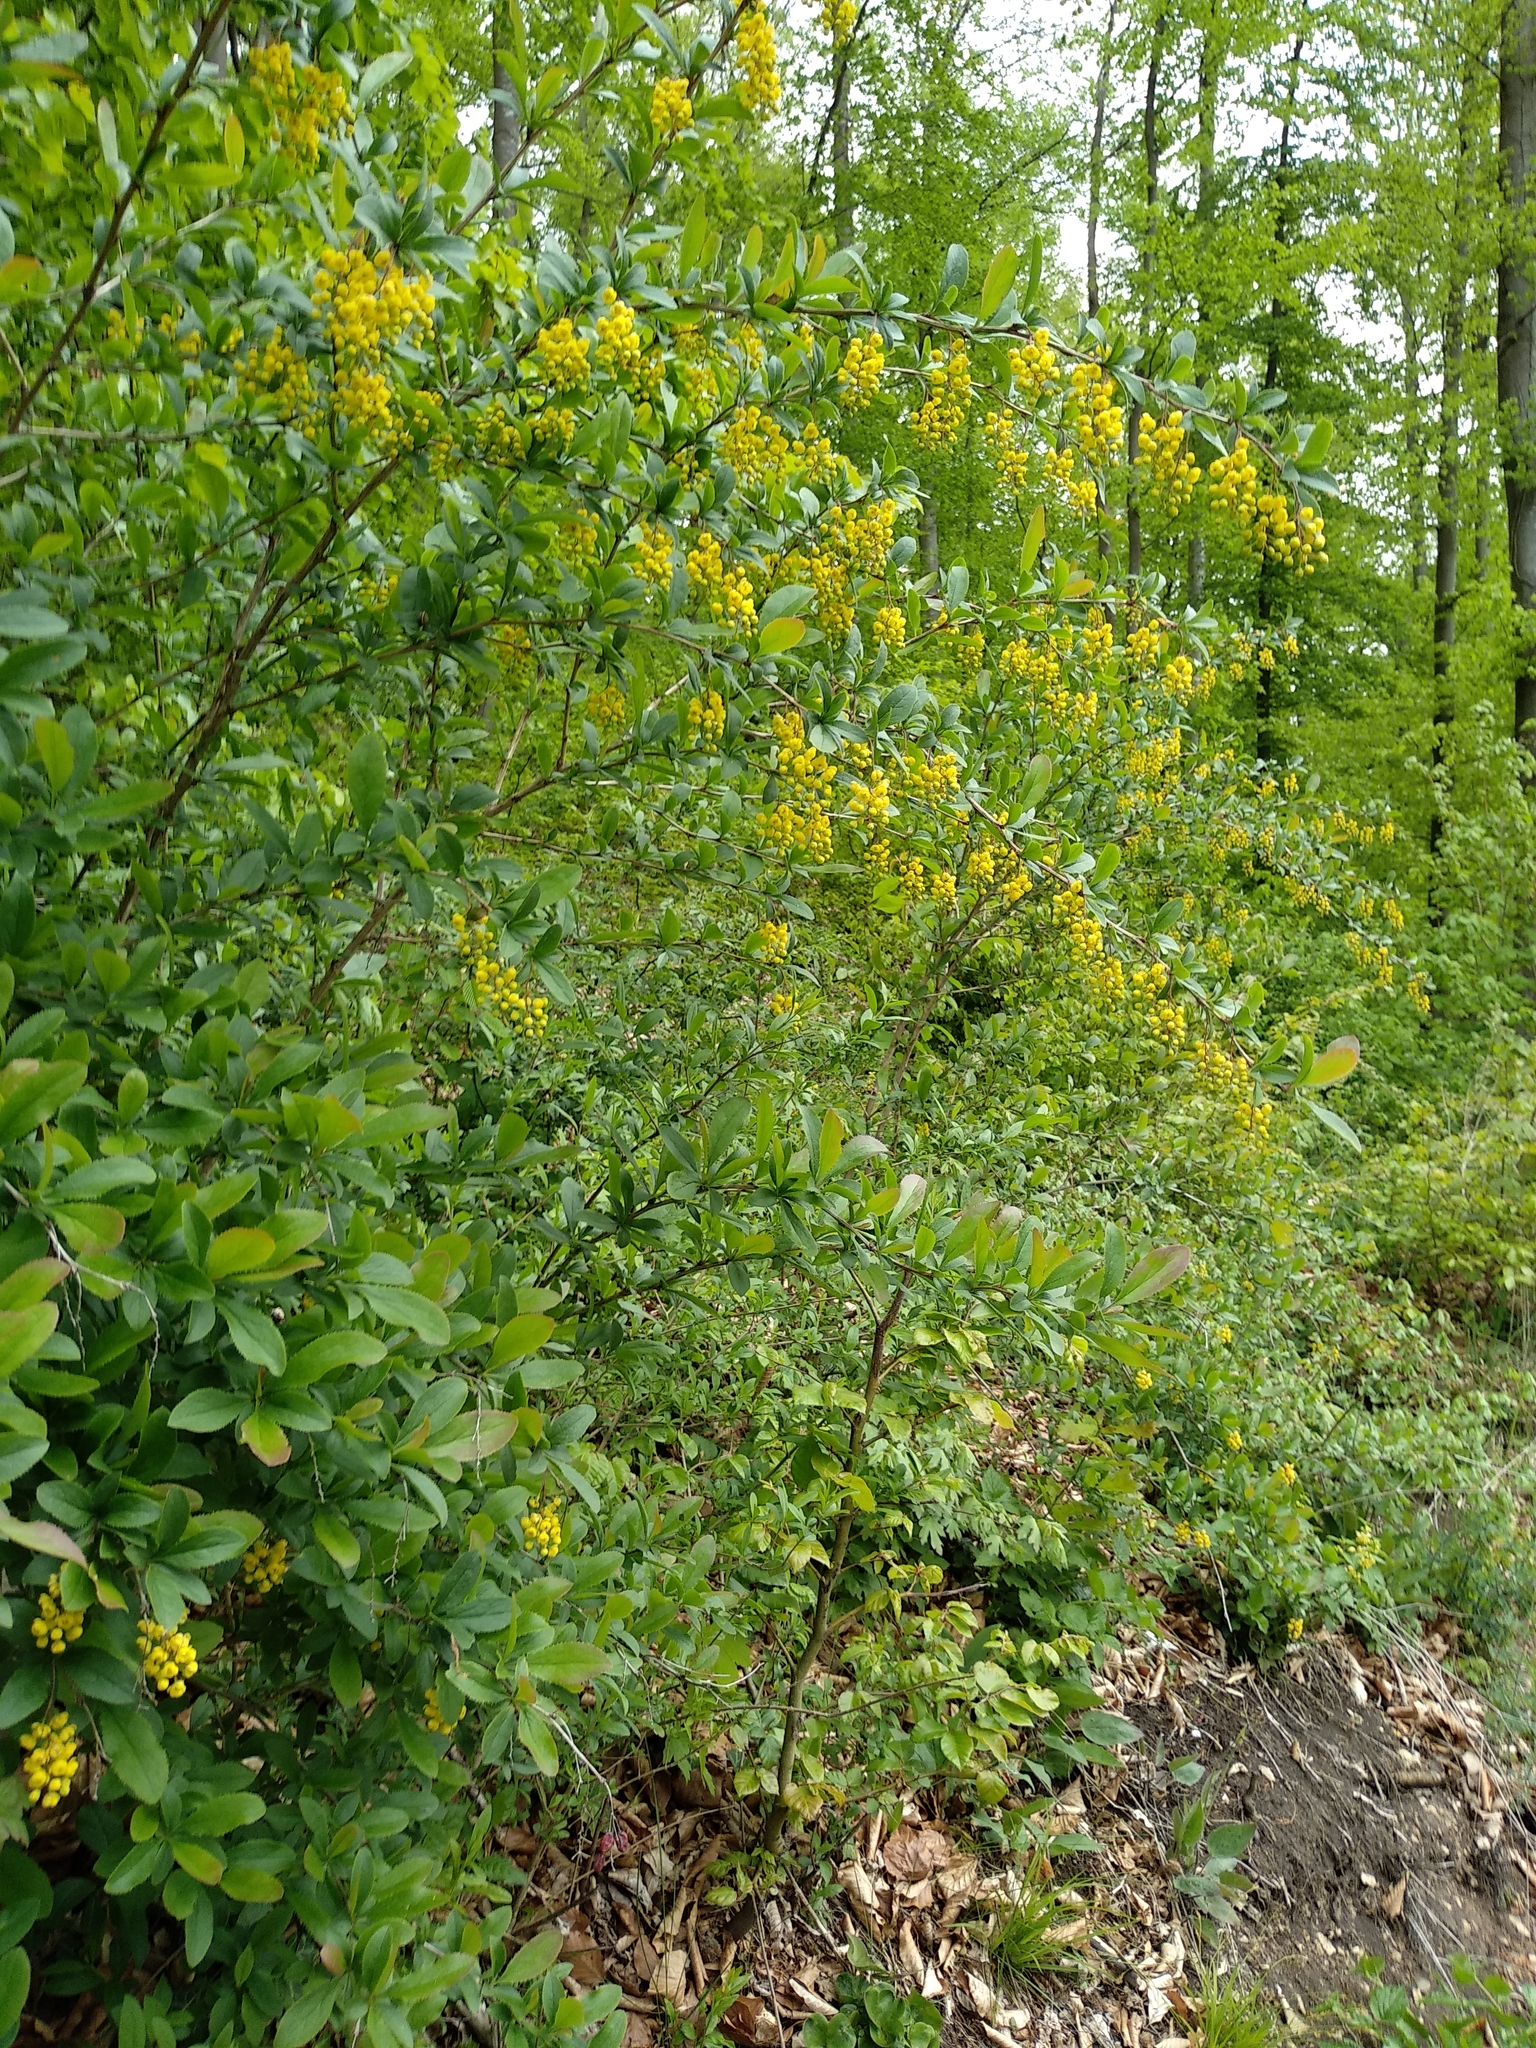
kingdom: Plantae
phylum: Tracheophyta
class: Magnoliopsida
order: Ranunculales
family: Berberidaceae
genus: Berberis
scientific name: Berberis vulgaris
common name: Barberry
